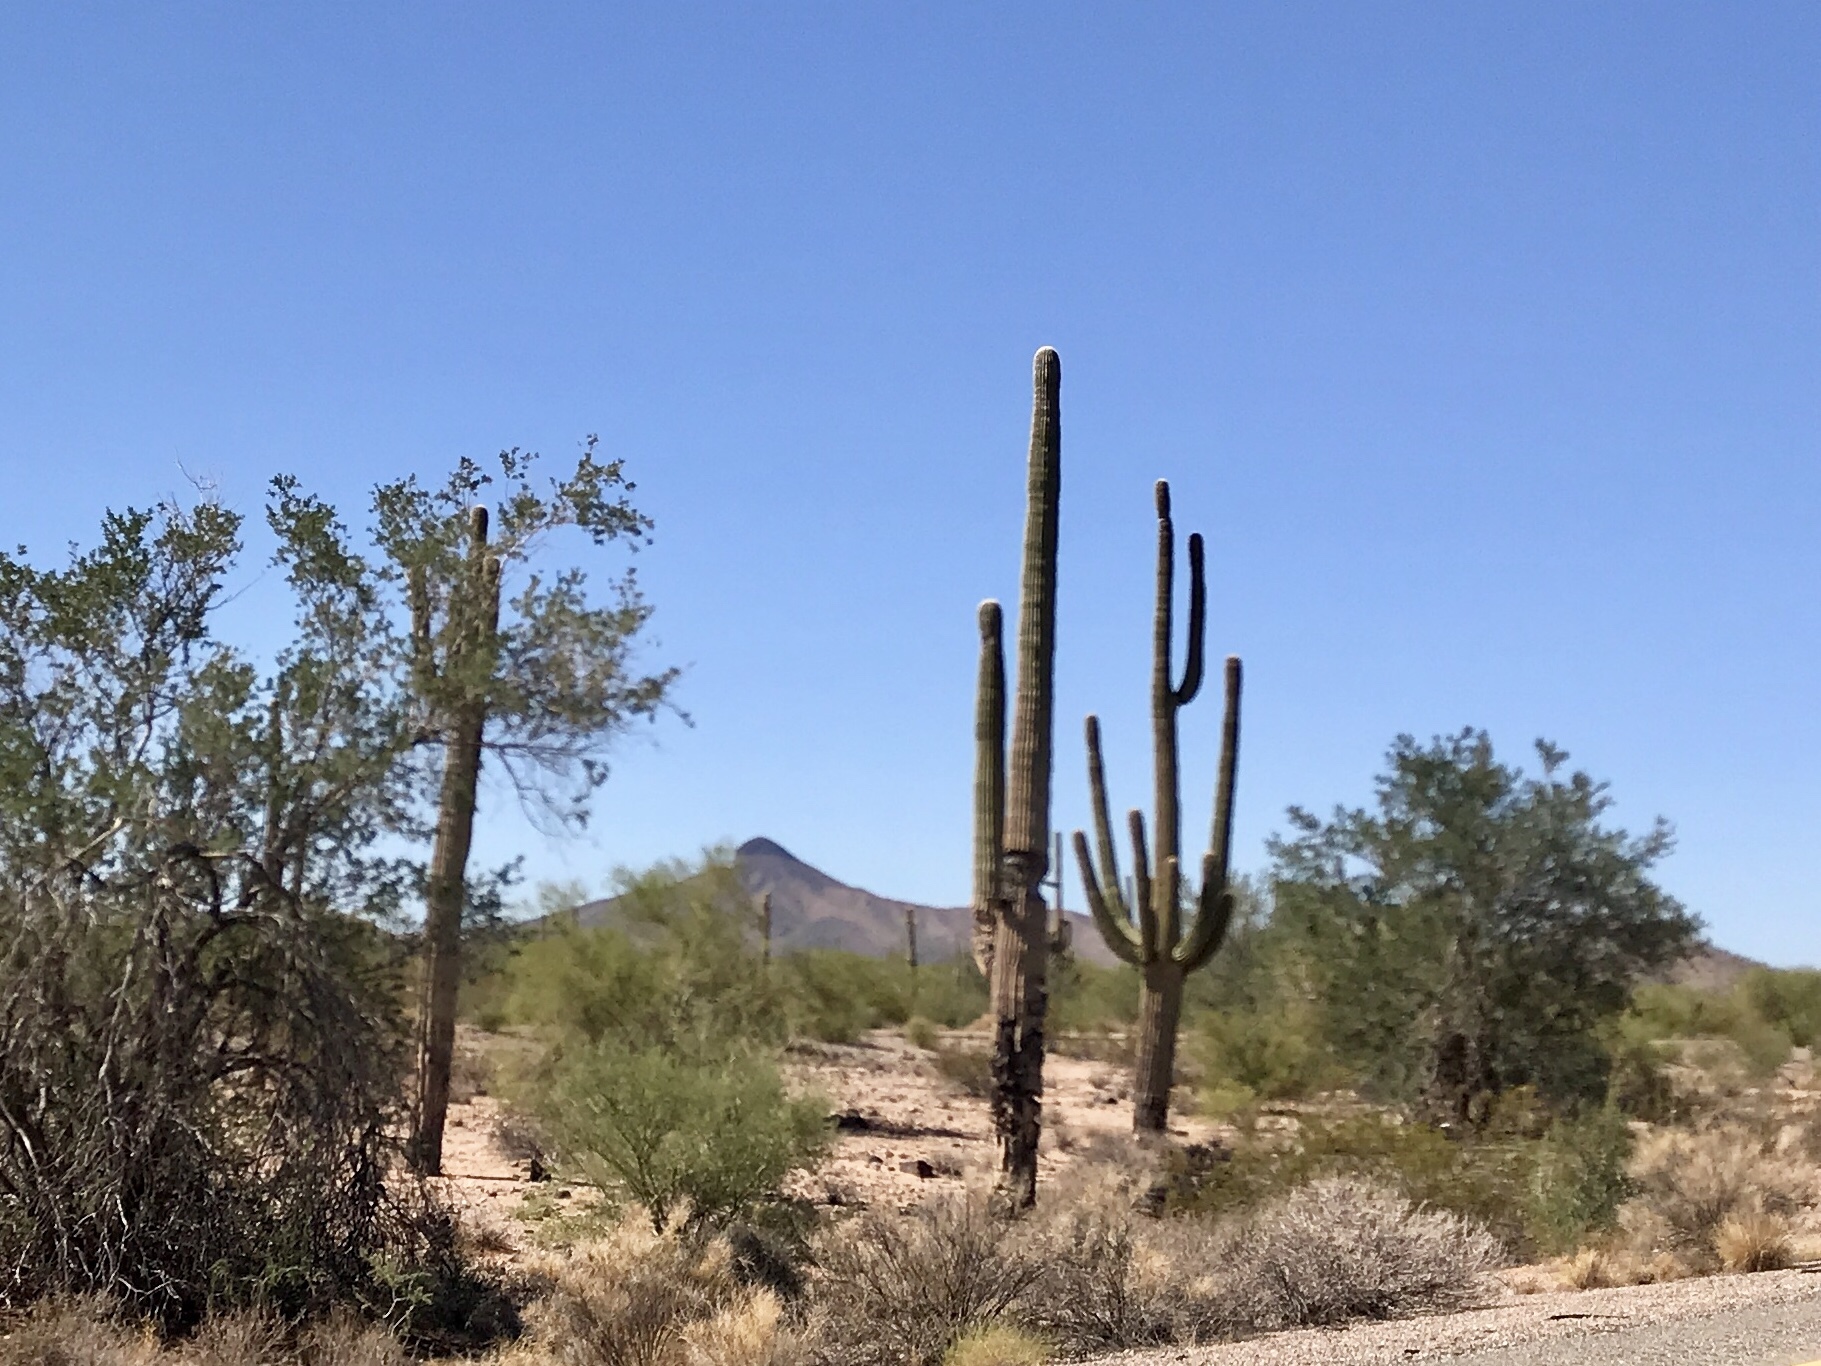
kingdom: Plantae
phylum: Tracheophyta
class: Magnoliopsida
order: Caryophyllales
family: Cactaceae
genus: Carnegiea
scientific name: Carnegiea gigantea
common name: Saguaro
